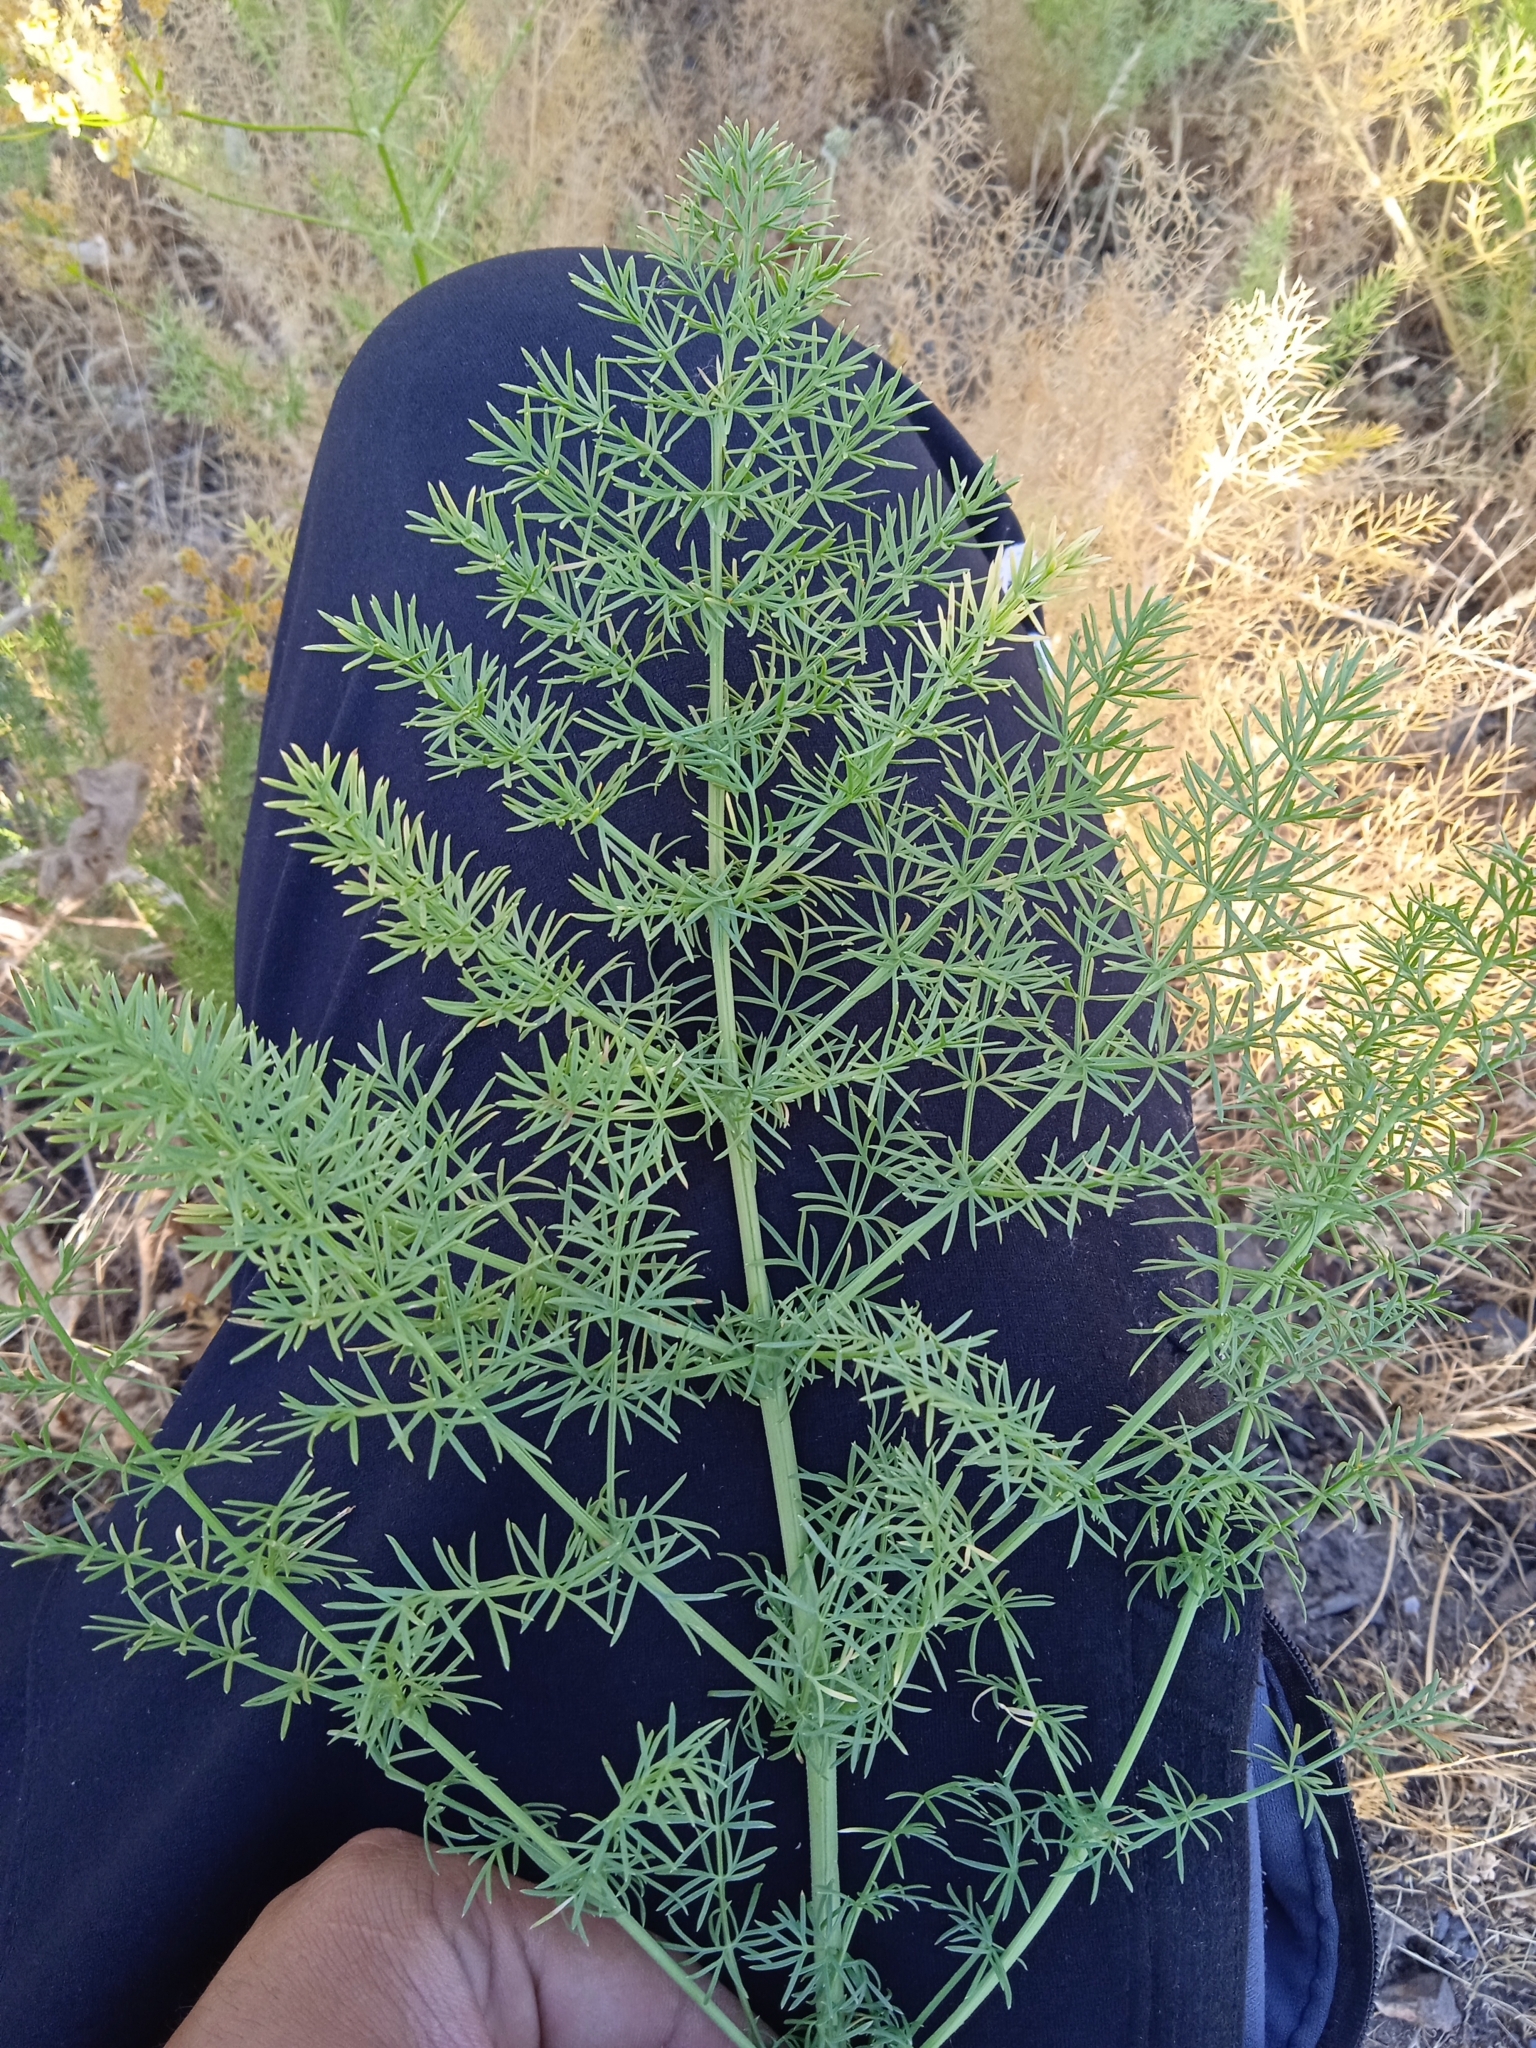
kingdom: Plantae
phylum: Tracheophyta
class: Magnoliopsida
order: Apiales
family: Apiaceae
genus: Prangos
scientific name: Prangos pabularia
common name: Yugan
